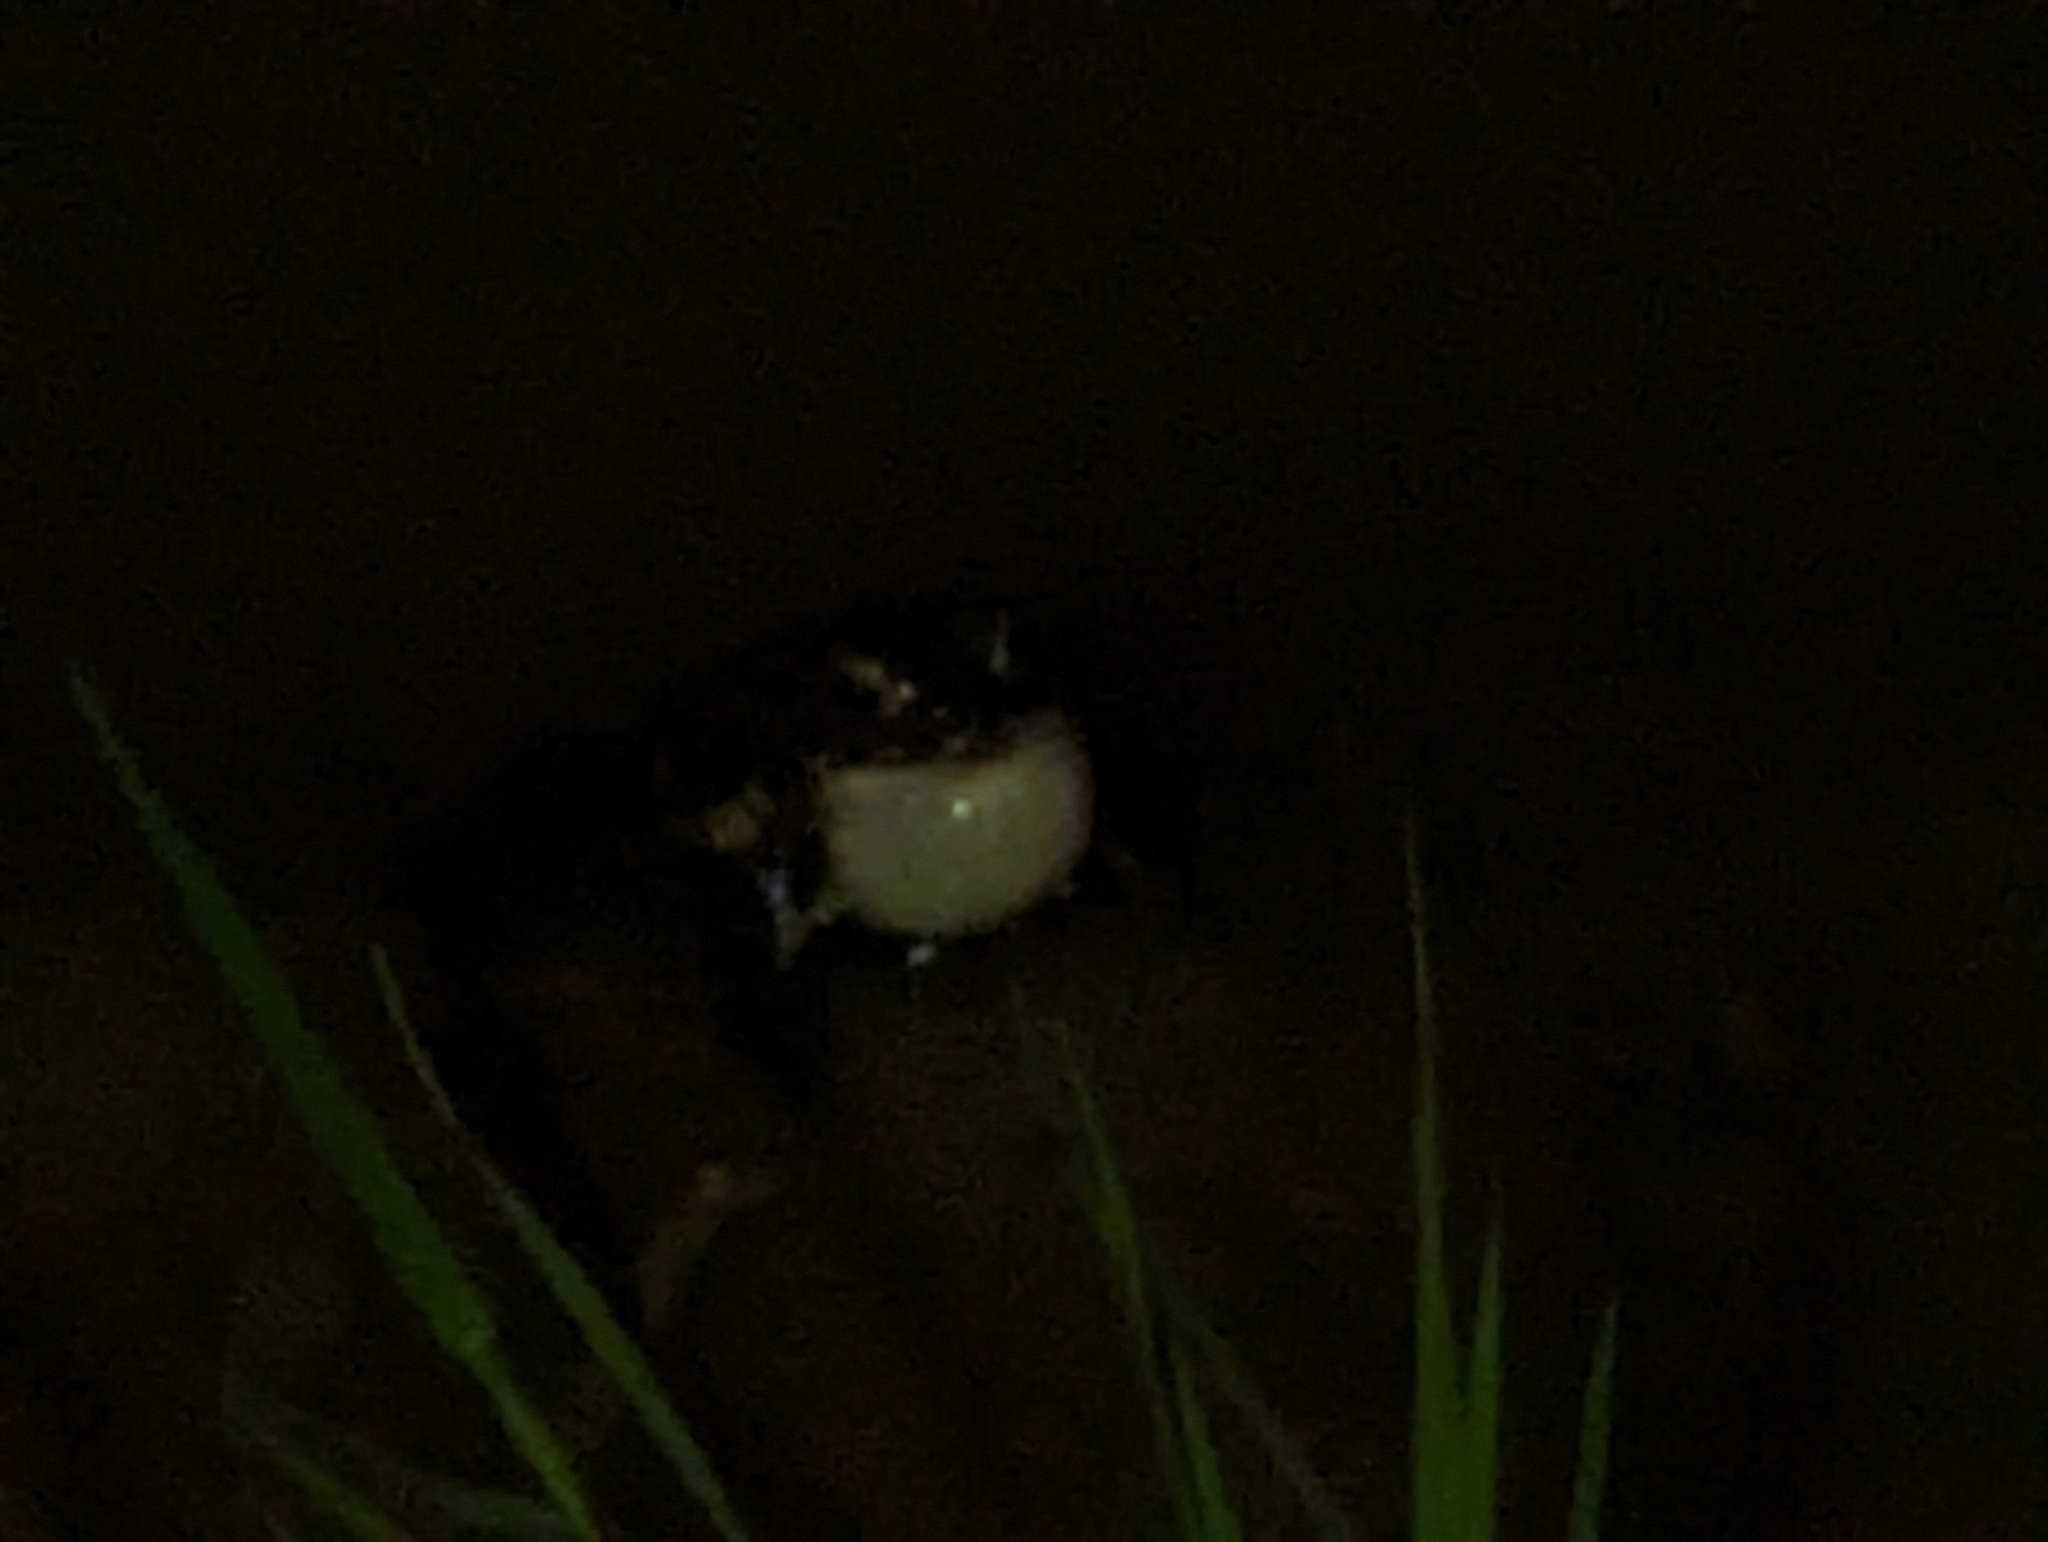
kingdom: Animalia
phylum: Chordata
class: Amphibia
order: Anura
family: Bufonidae
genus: Bufotes
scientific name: Bufotes viridis
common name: European green toad
